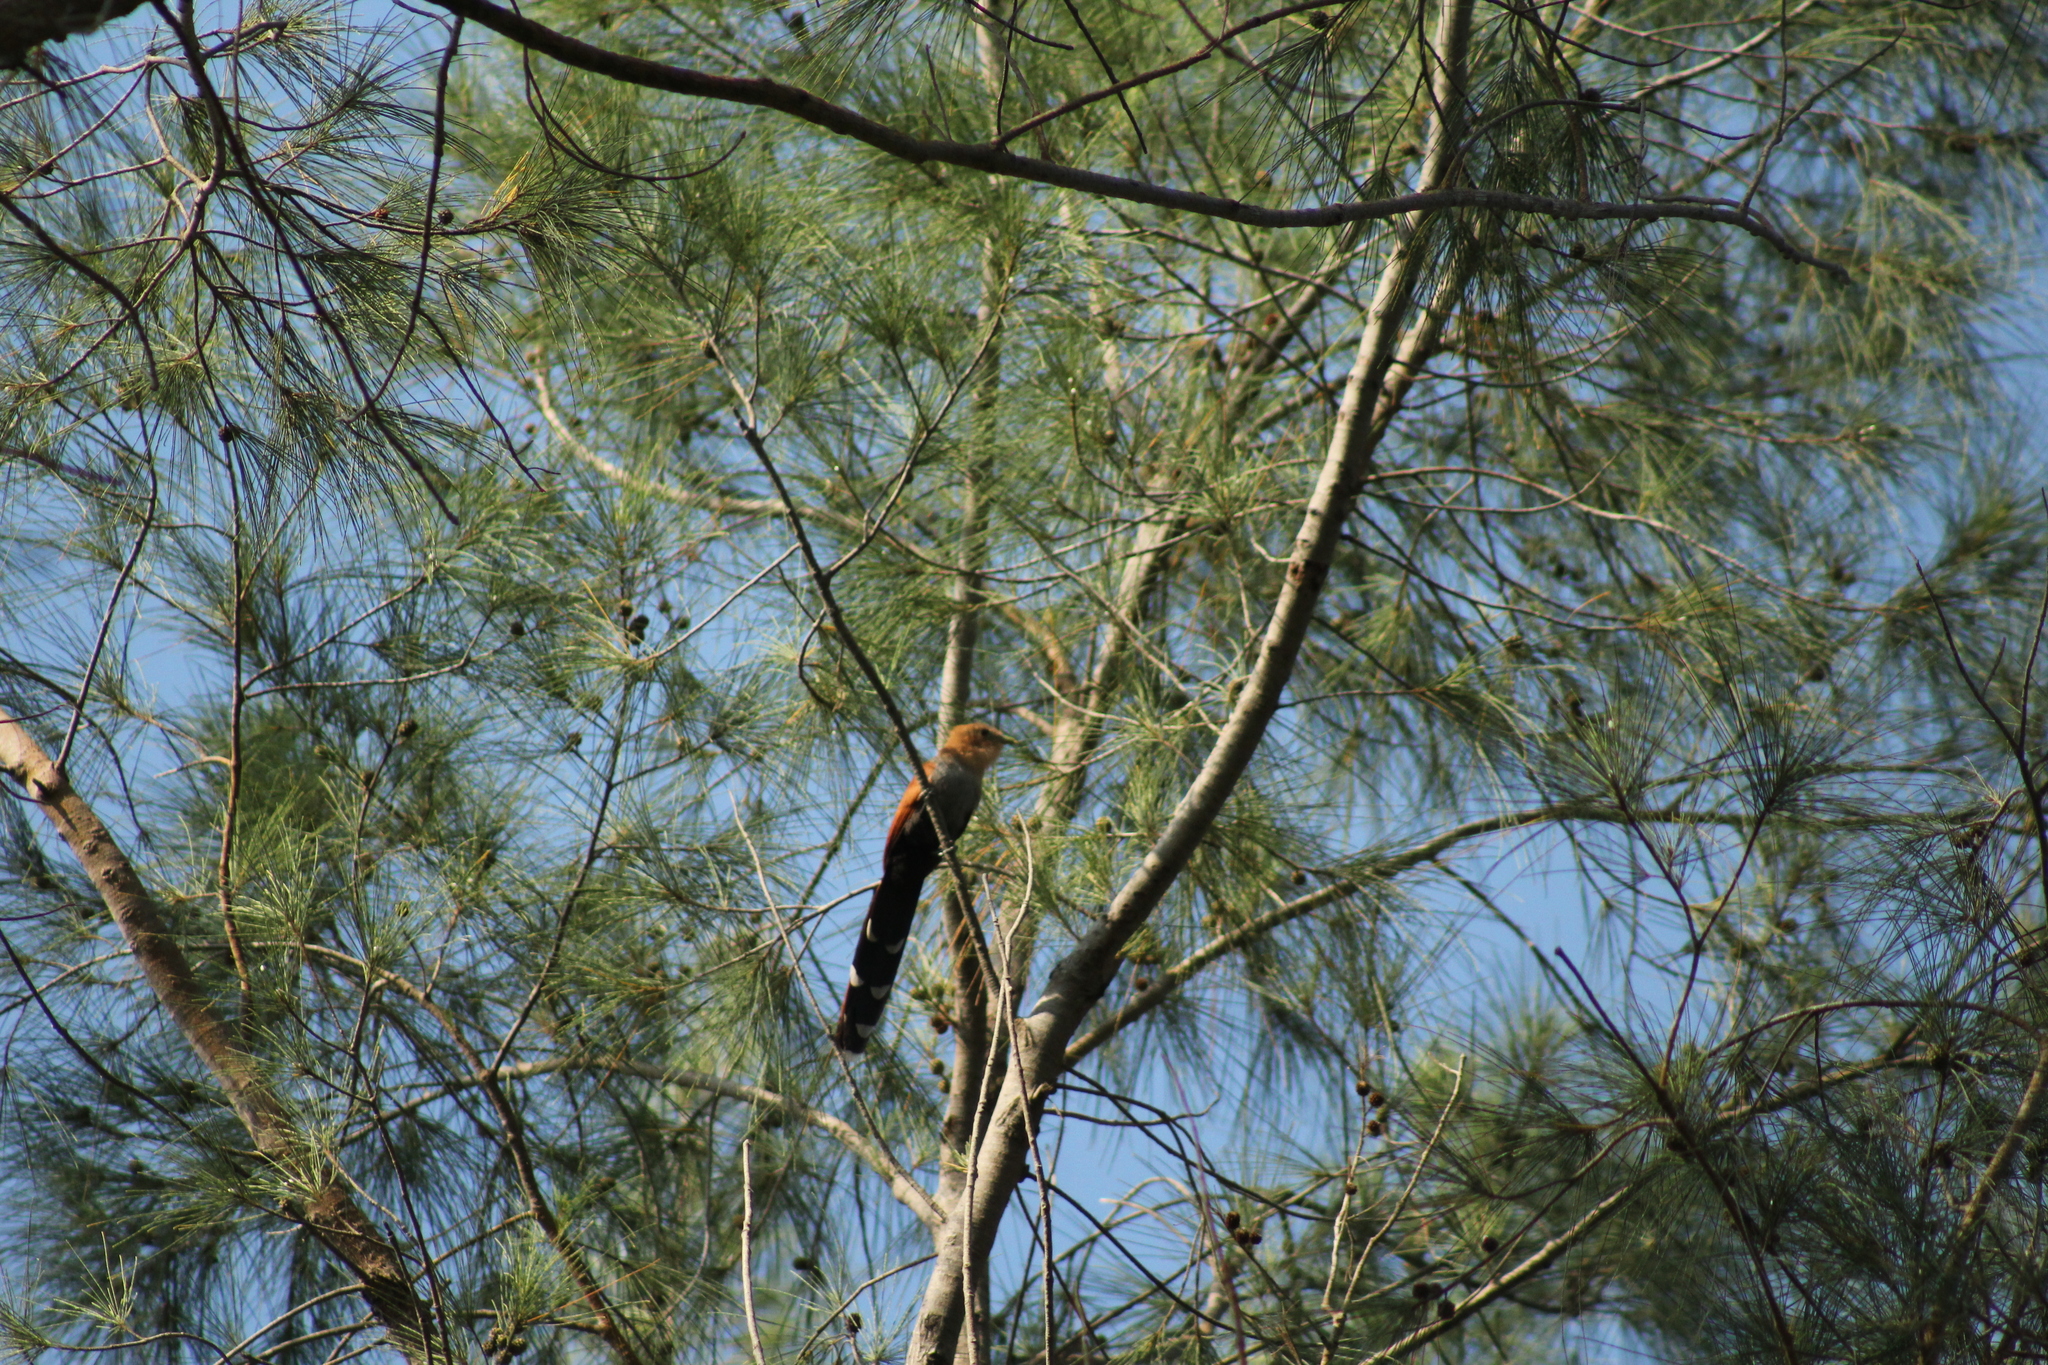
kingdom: Animalia
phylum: Chordata
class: Aves
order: Cuculiformes
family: Cuculidae
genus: Piaya
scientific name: Piaya cayana
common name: Squirrel cuckoo
